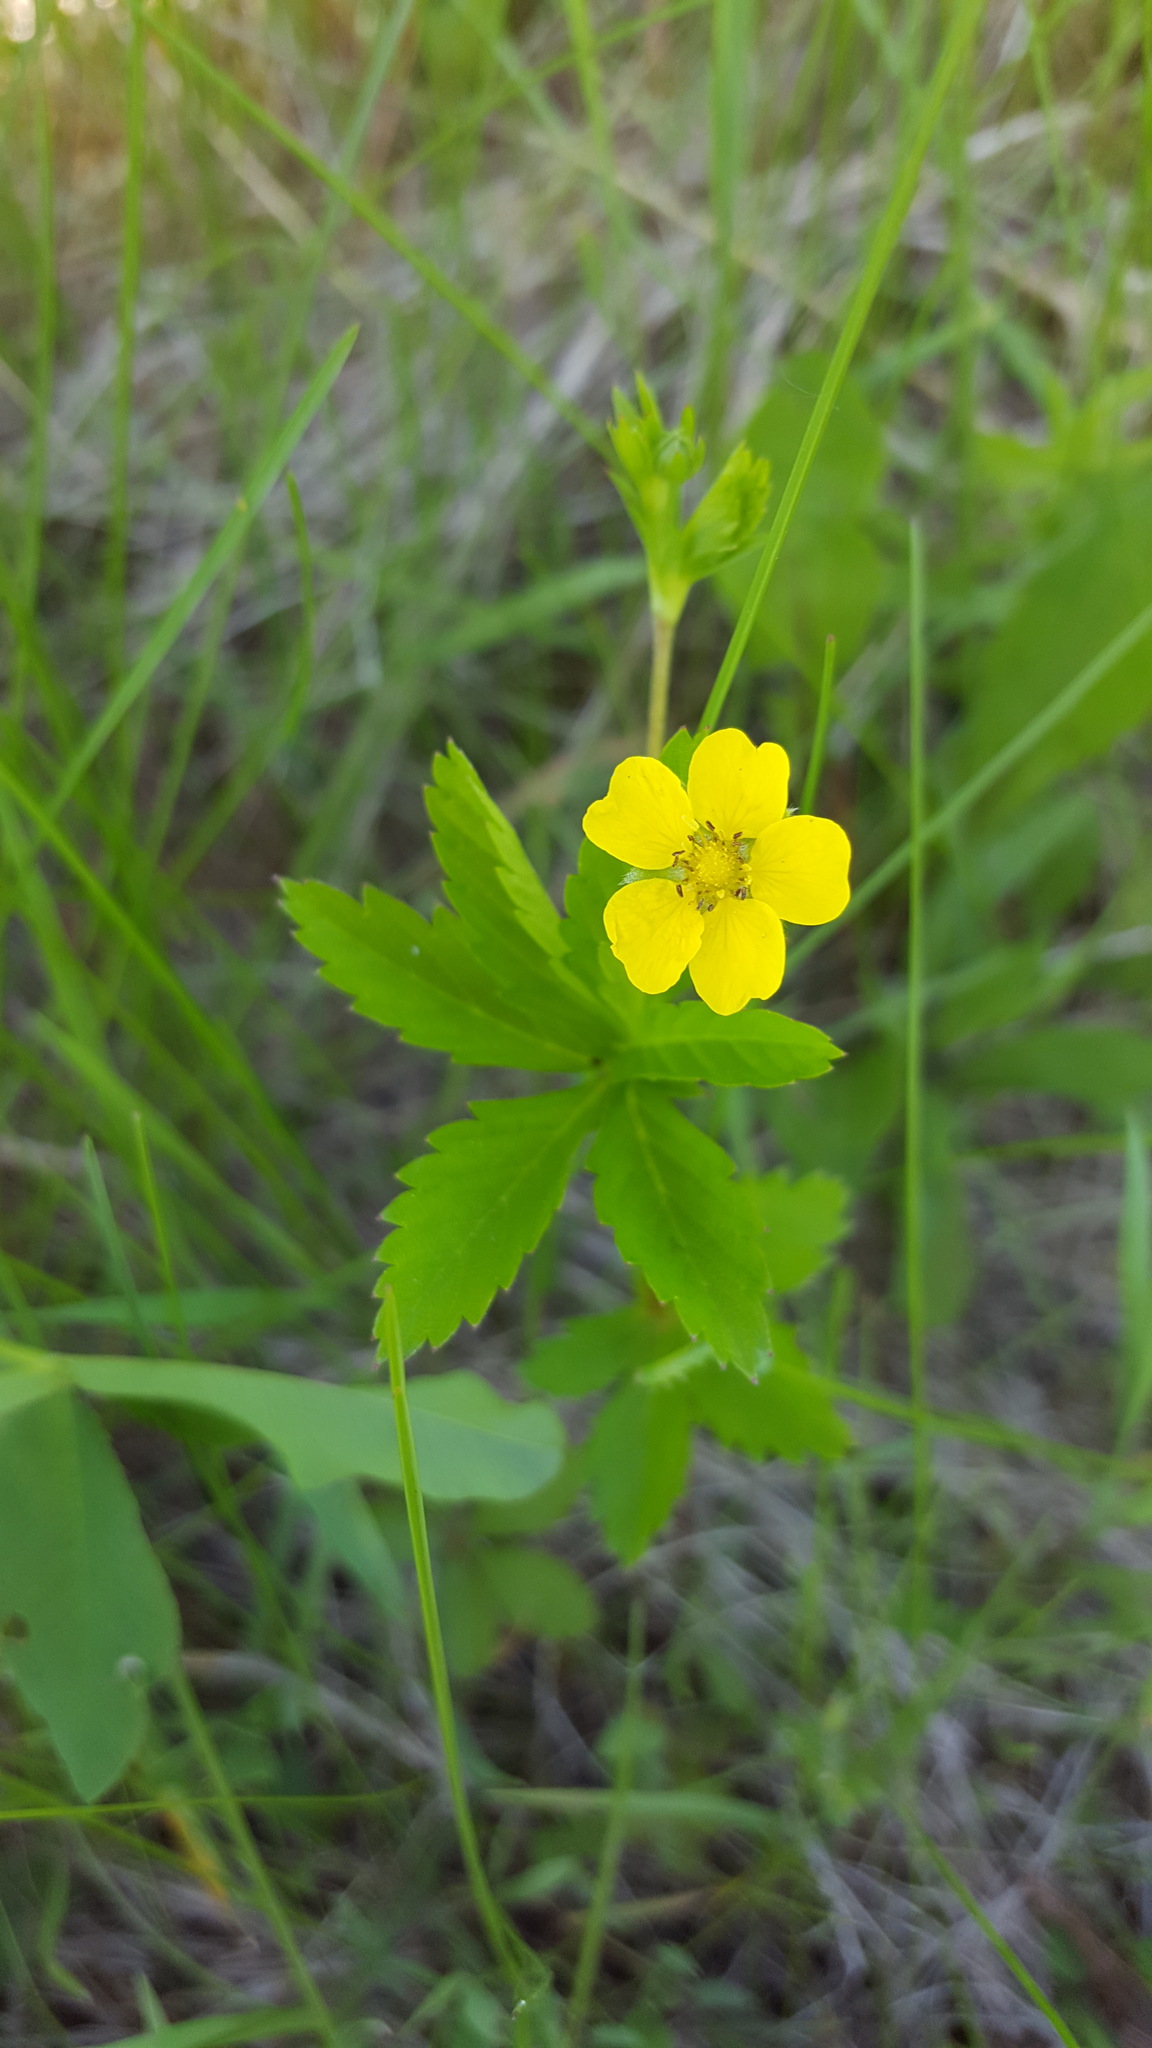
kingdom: Plantae
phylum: Tracheophyta
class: Magnoliopsida
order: Rosales
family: Rosaceae
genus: Potentilla
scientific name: Potentilla simplex
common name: Old field cinquefoil
